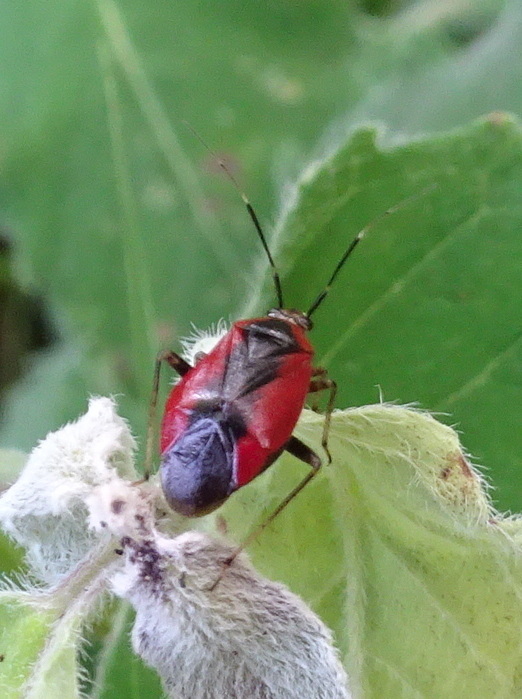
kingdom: Animalia
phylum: Arthropoda
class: Insecta
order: Hemiptera
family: Miridae
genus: Metriorrhynchomiris
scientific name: Metriorrhynchomiris dislocatus
